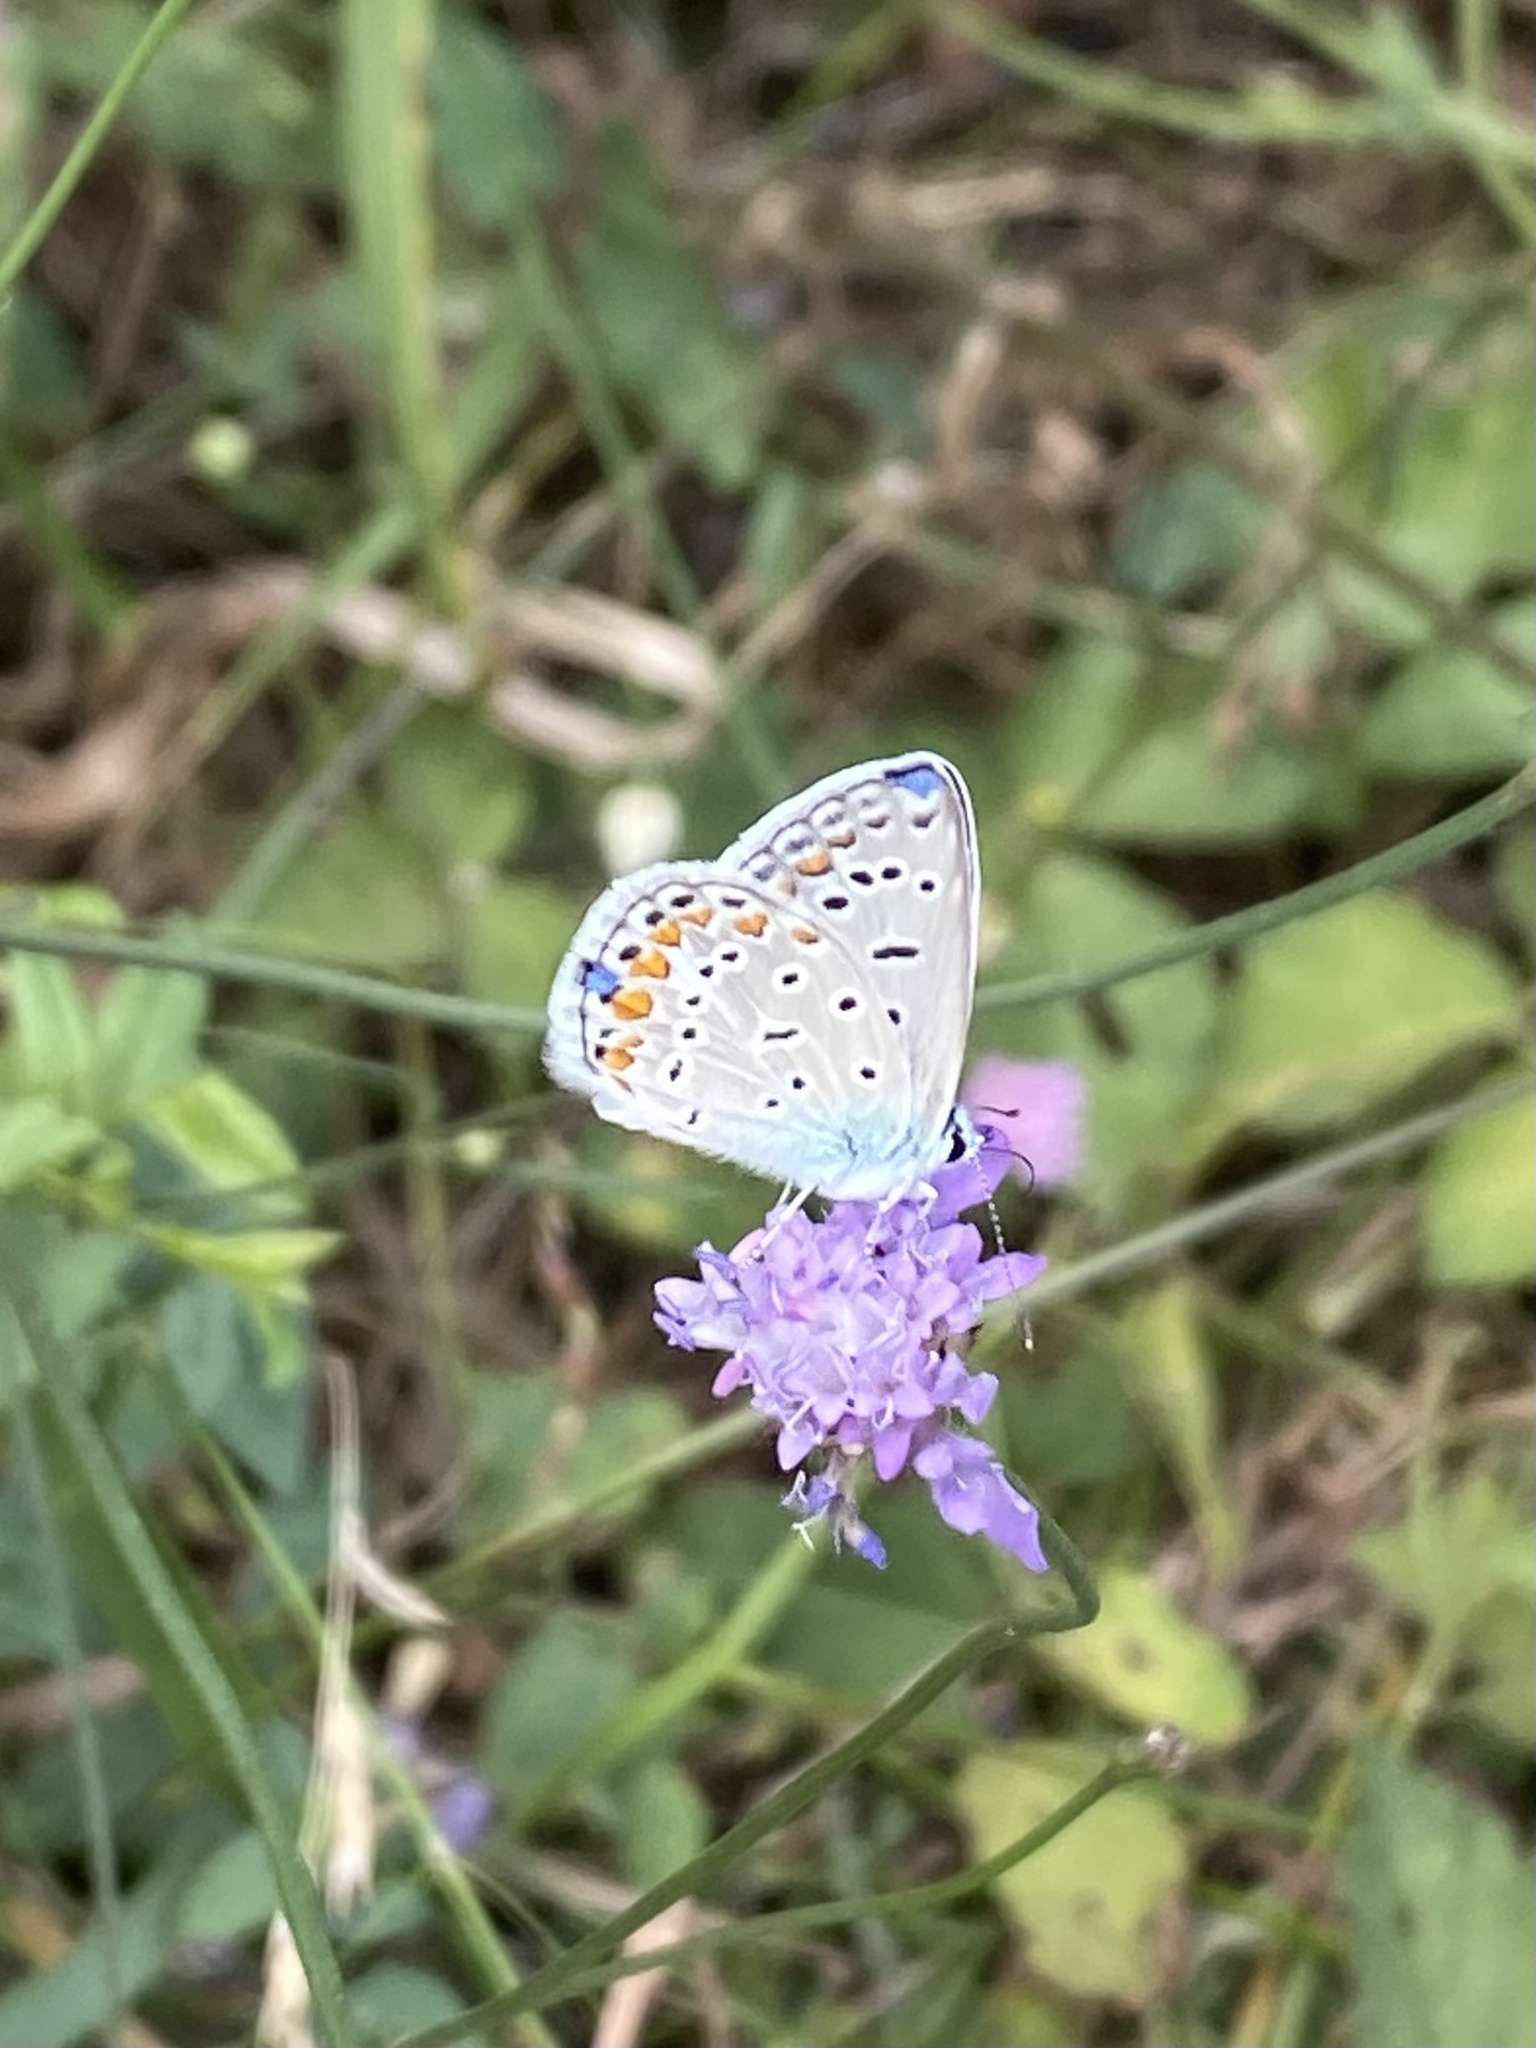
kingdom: Animalia
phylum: Arthropoda
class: Insecta
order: Lepidoptera
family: Lycaenidae
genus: Polyommatus
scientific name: Polyommatus icarus
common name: Common blue
